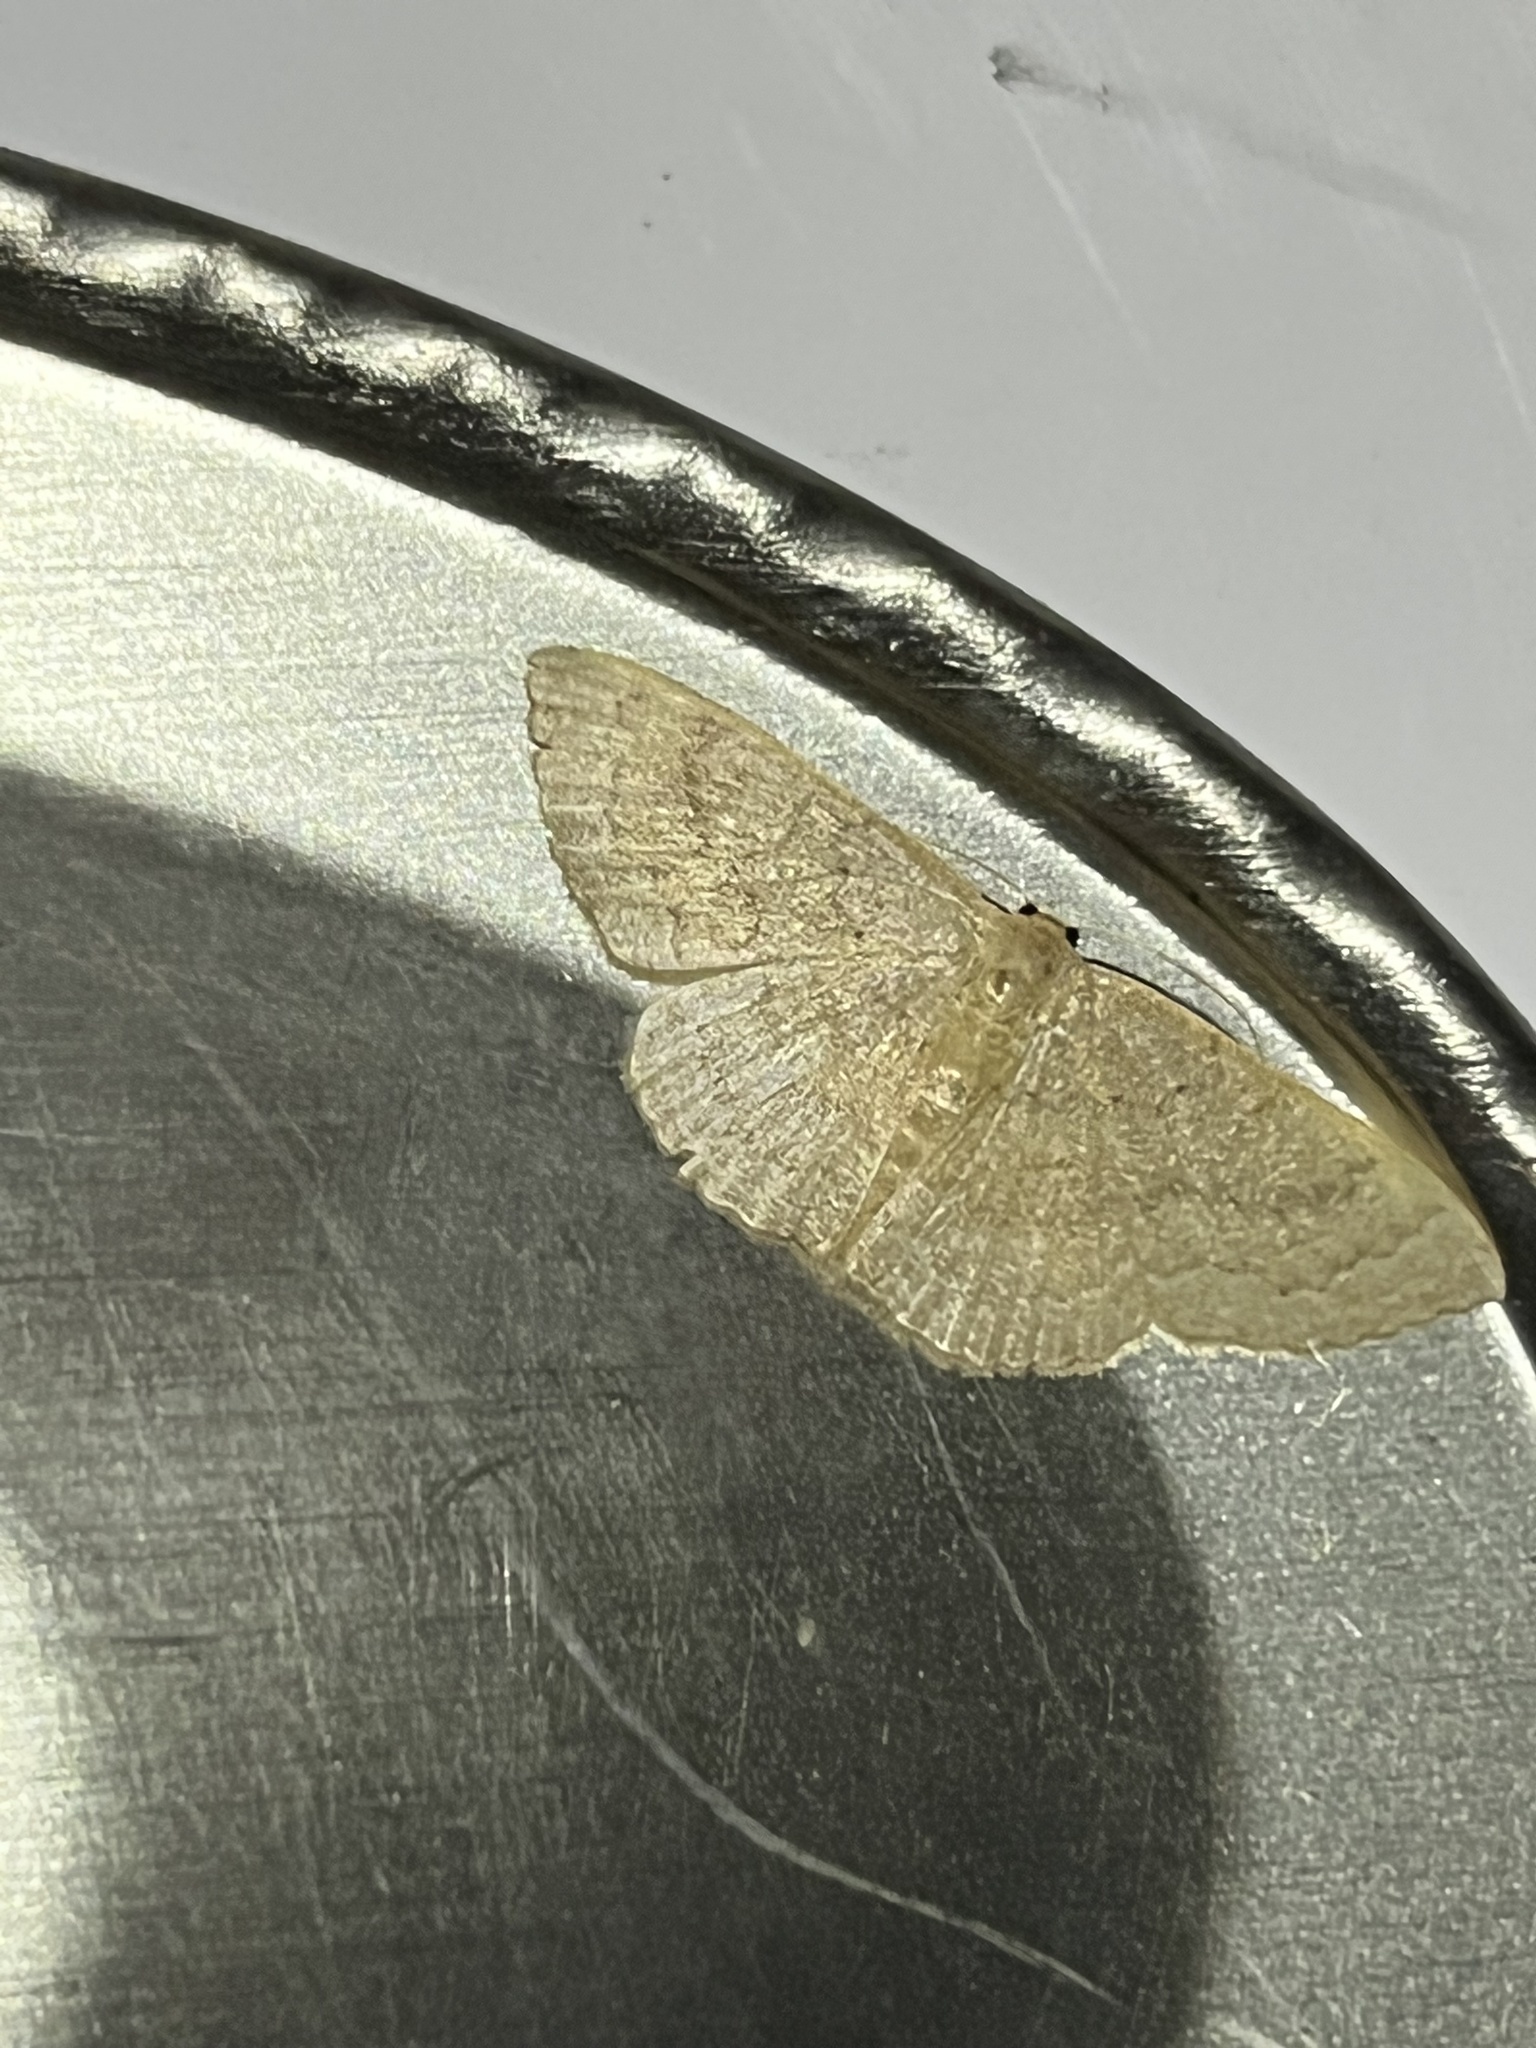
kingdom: Animalia
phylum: Arthropoda
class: Insecta
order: Lepidoptera
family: Geometridae
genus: Pleuroprucha
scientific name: Pleuroprucha insulsaria
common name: Common tan wave
